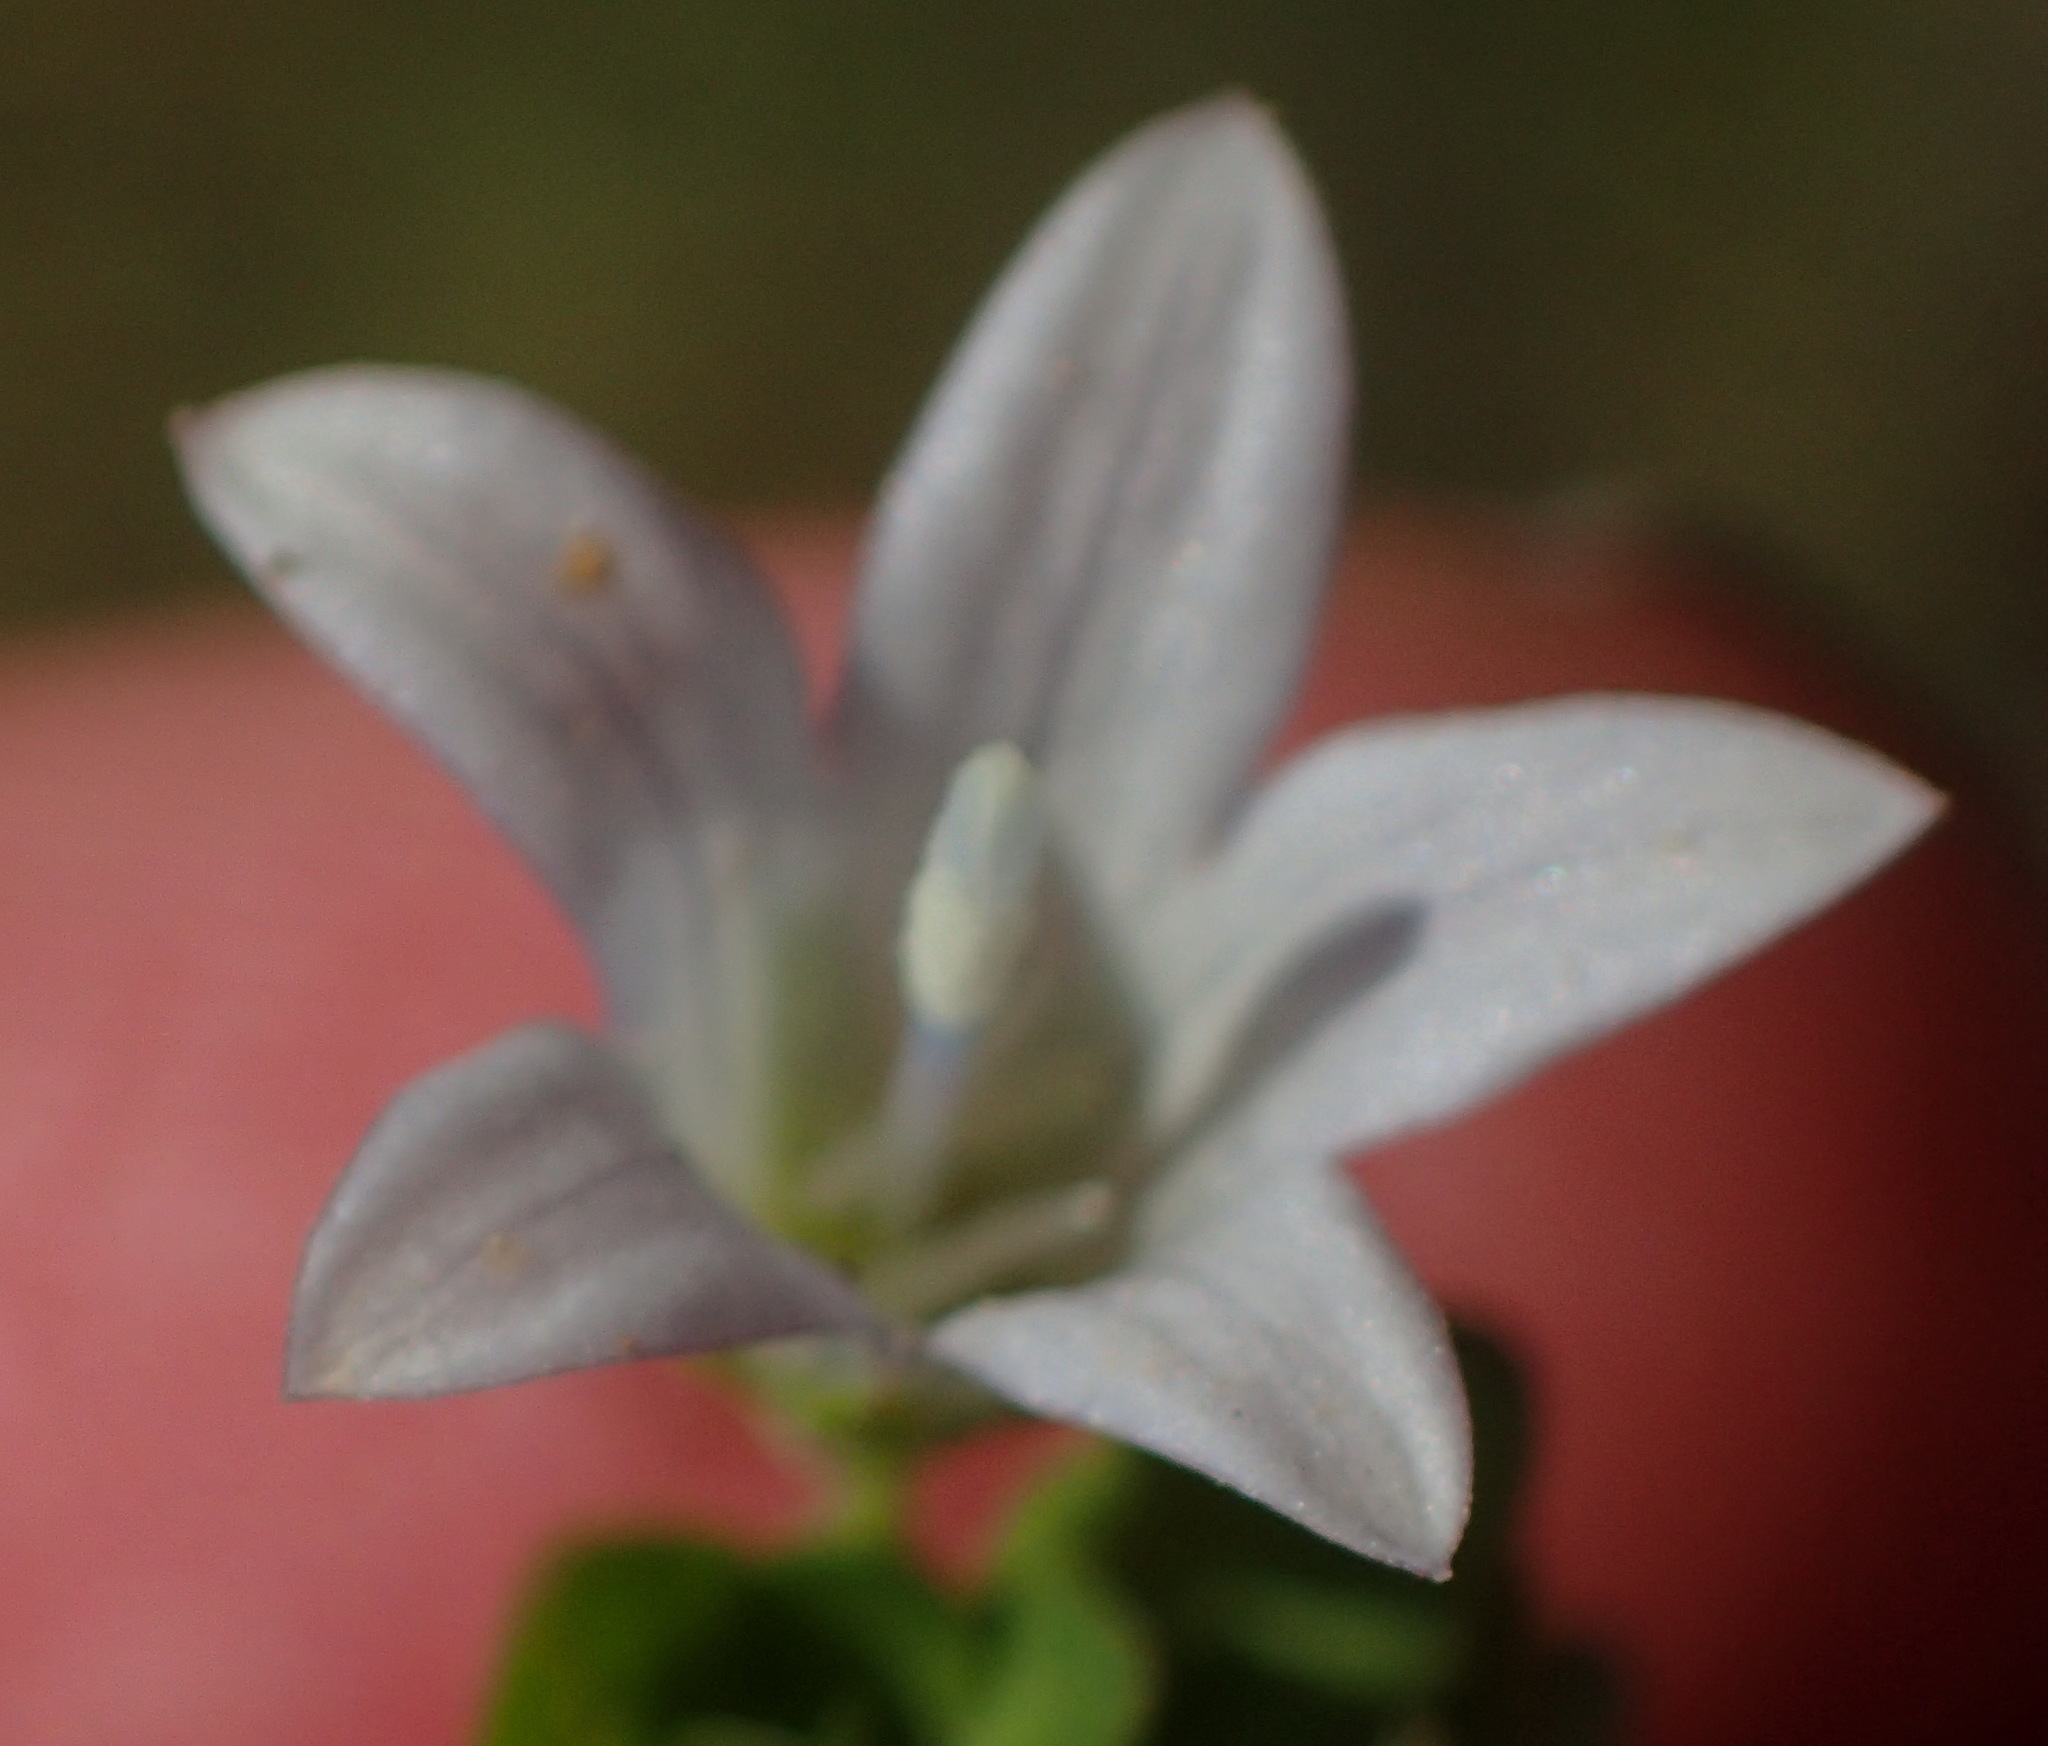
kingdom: Plantae
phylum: Tracheophyta
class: Magnoliopsida
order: Asterales
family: Campanulaceae
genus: Wahlenbergia
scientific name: Wahlenbergia procumbens
